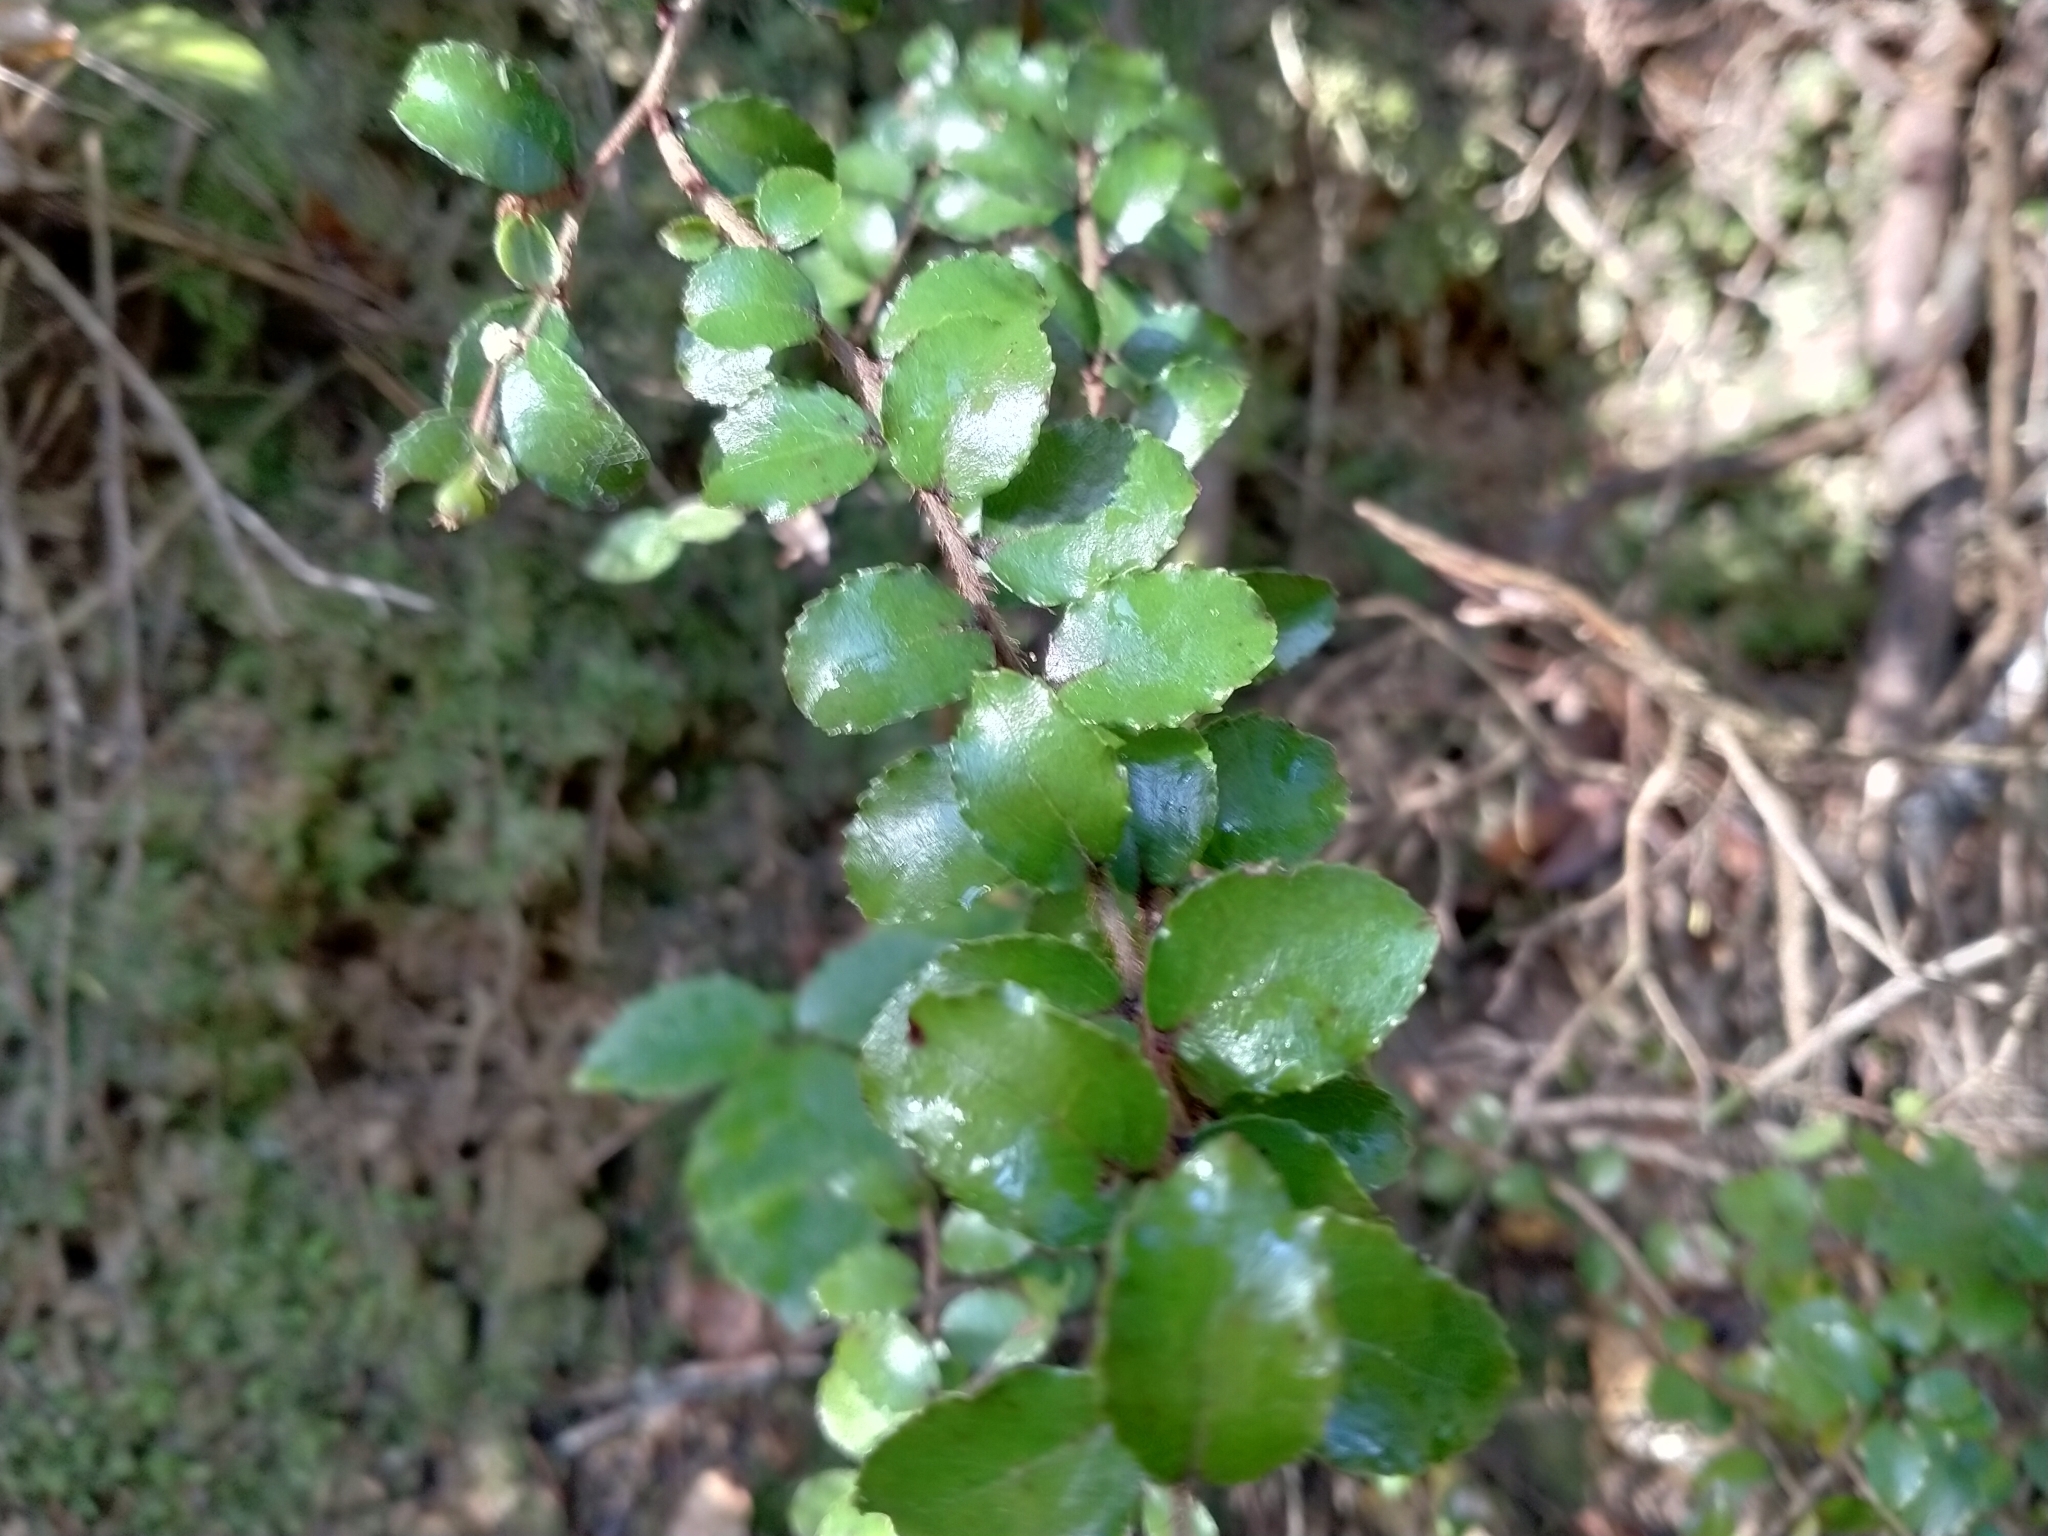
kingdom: Plantae
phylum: Tracheophyta
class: Magnoliopsida
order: Ericales
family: Ericaceae
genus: Gaultheria
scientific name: Gaultheria antipoda
